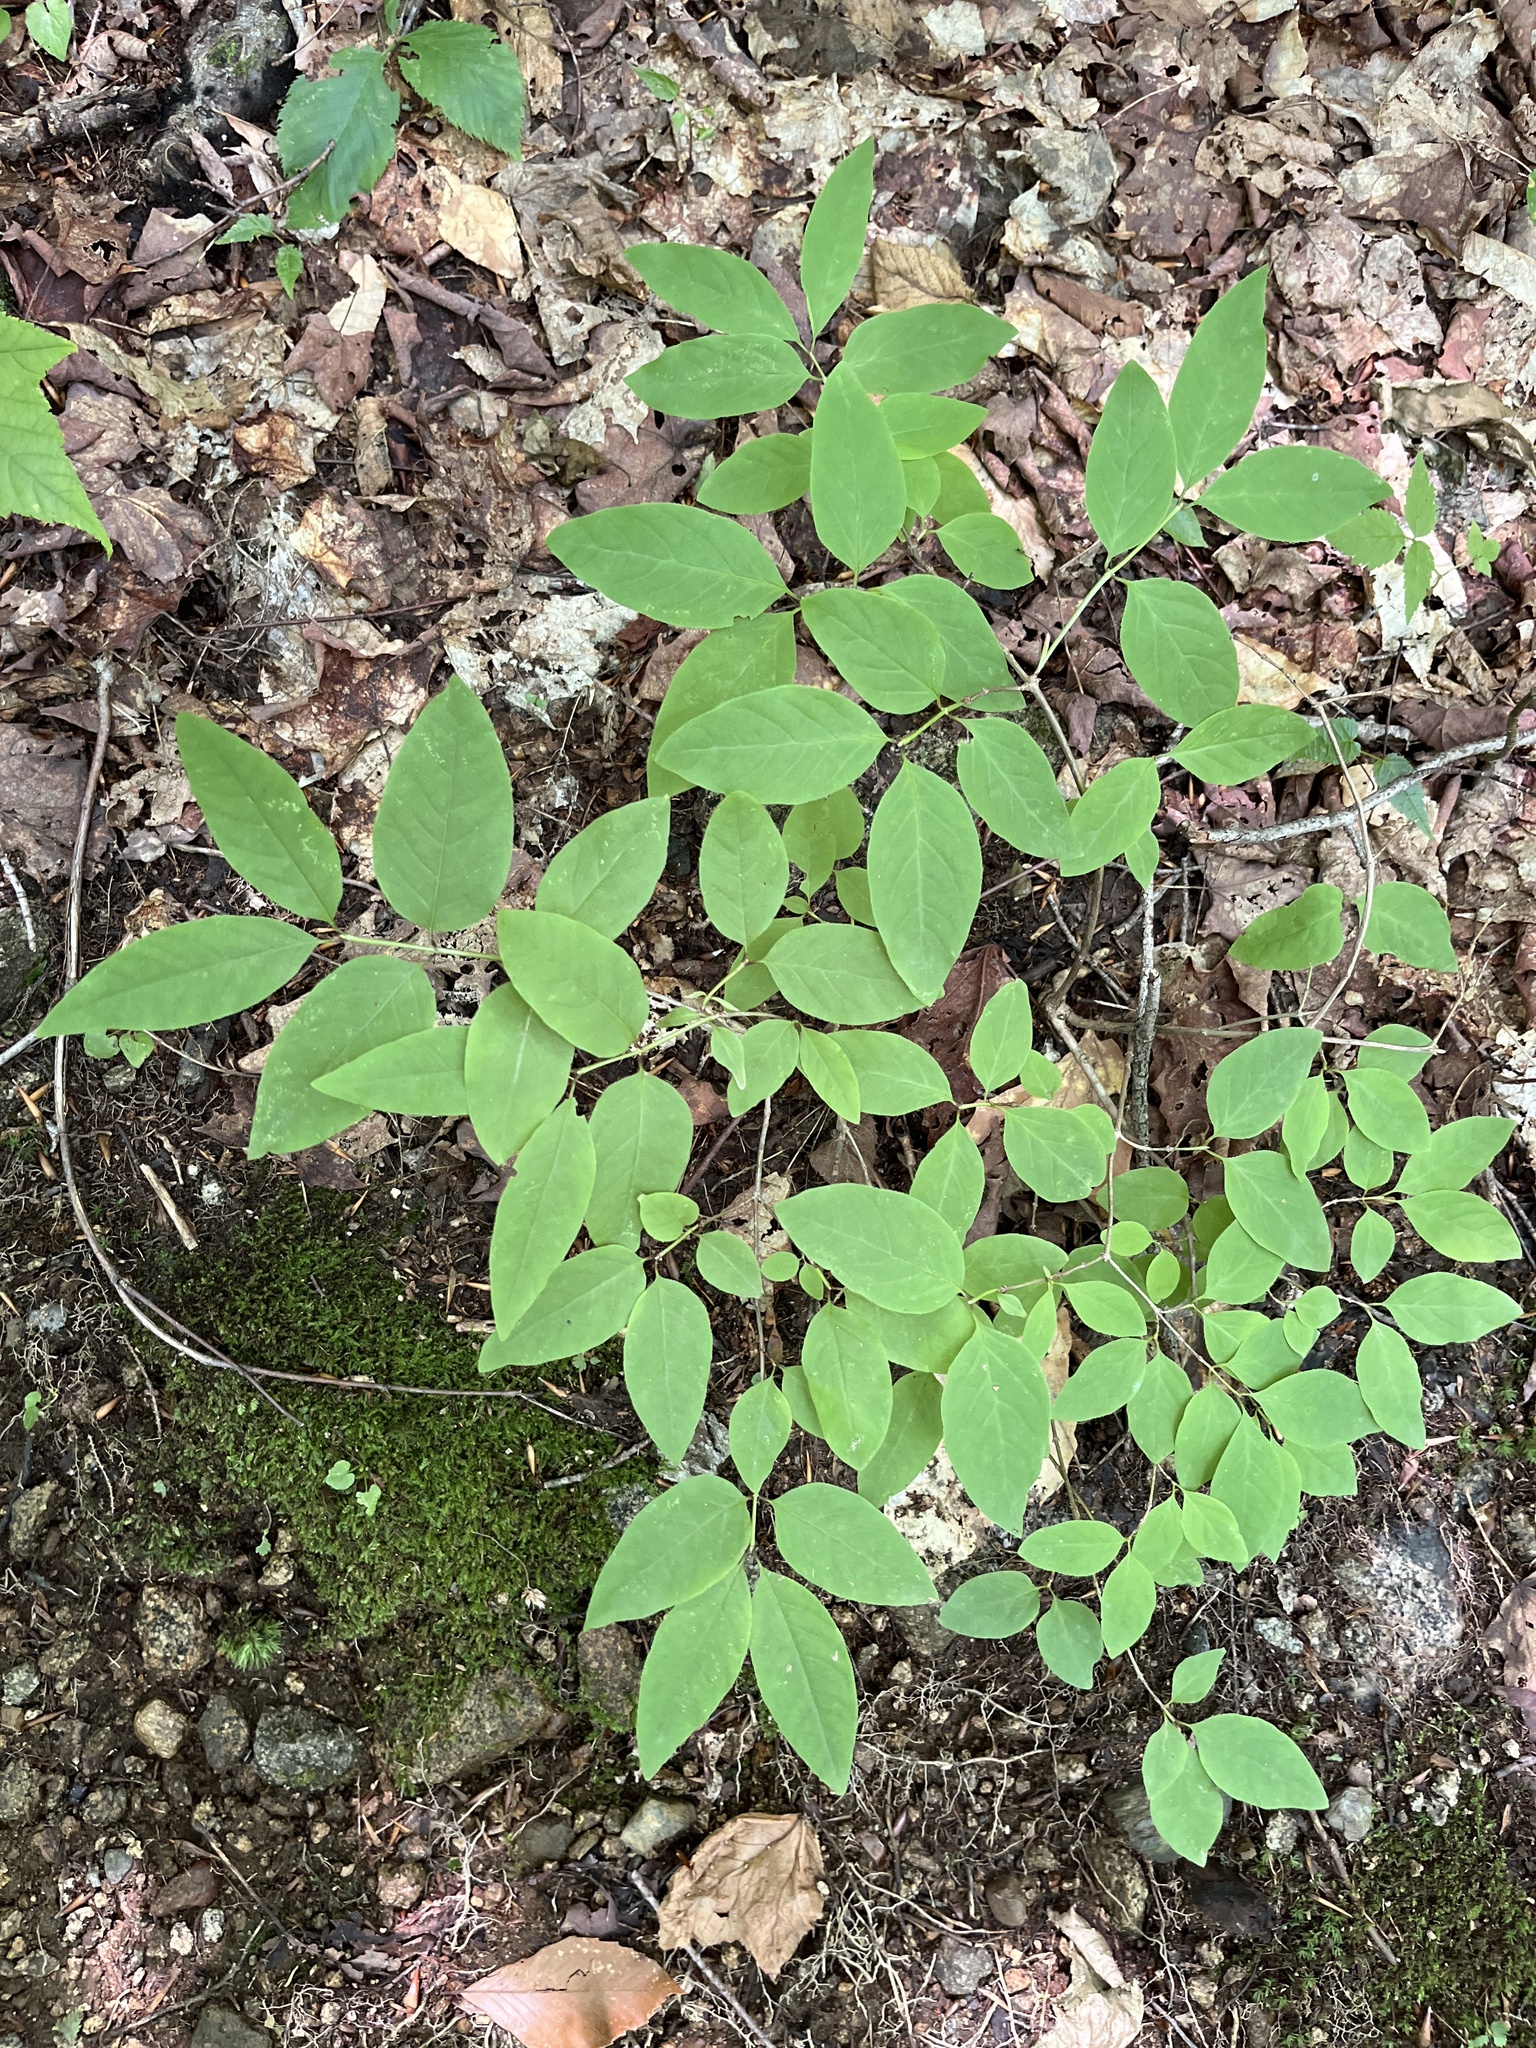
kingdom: Plantae
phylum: Tracheophyta
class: Magnoliopsida
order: Dipsacales
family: Caprifoliaceae
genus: Lonicera
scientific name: Lonicera canadensis
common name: American fly-honeysuckle
